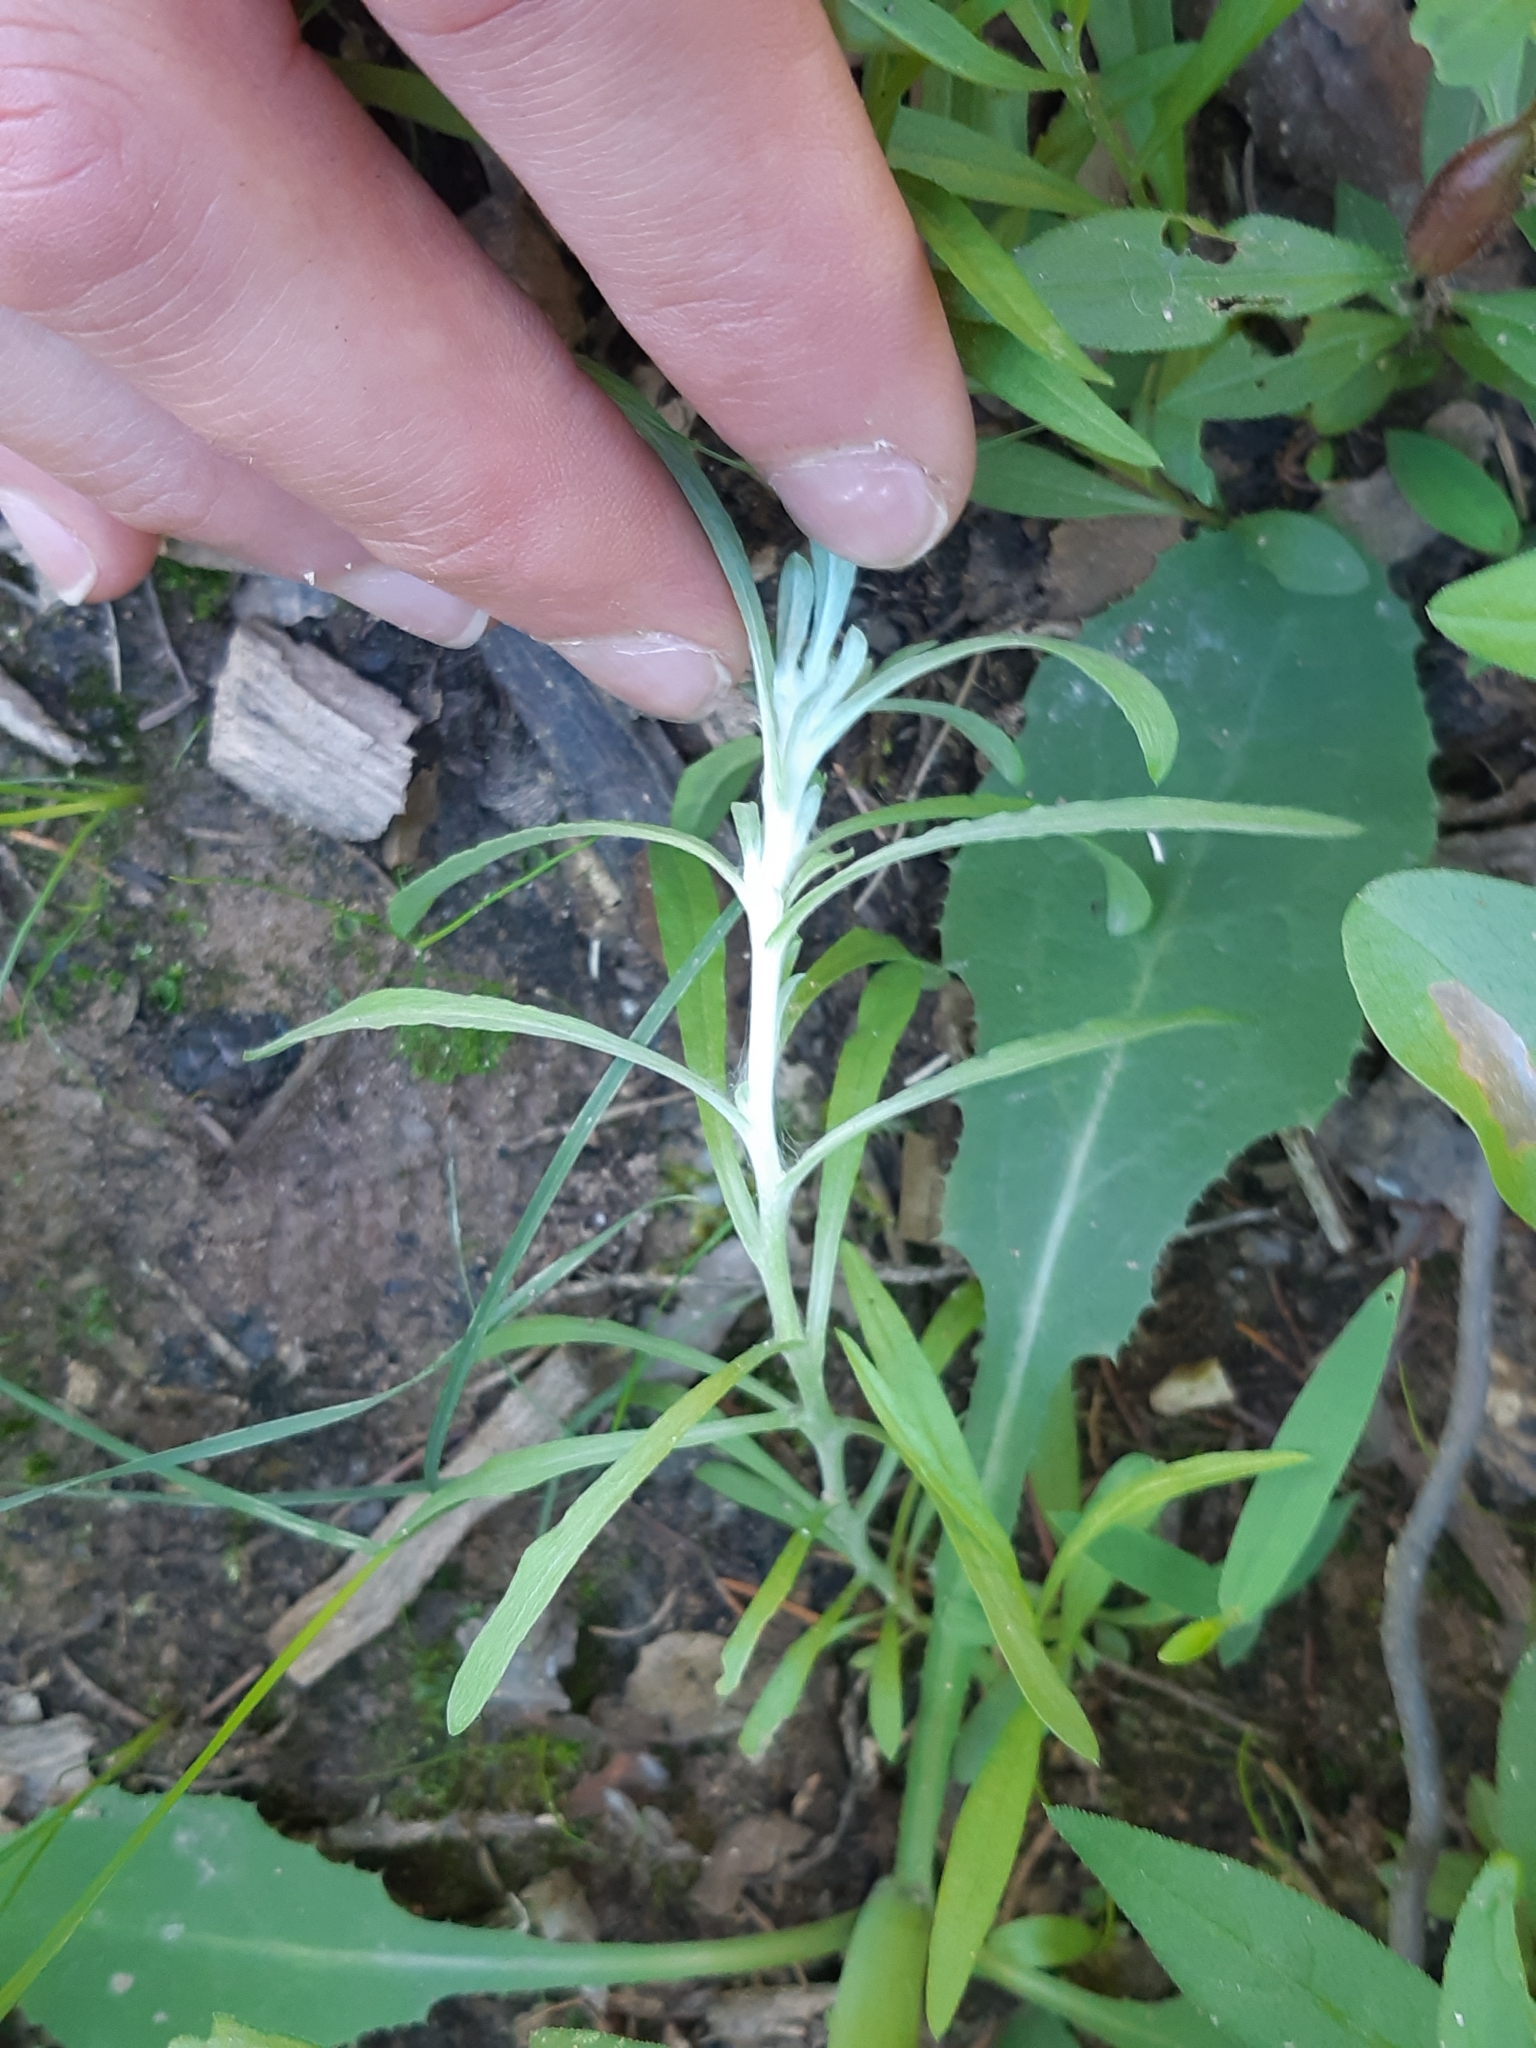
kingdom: Plantae
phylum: Tracheophyta
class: Magnoliopsida
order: Asterales
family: Asteraceae
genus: Gnaphalium
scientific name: Gnaphalium uliginosum
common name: Marsh cudweed
